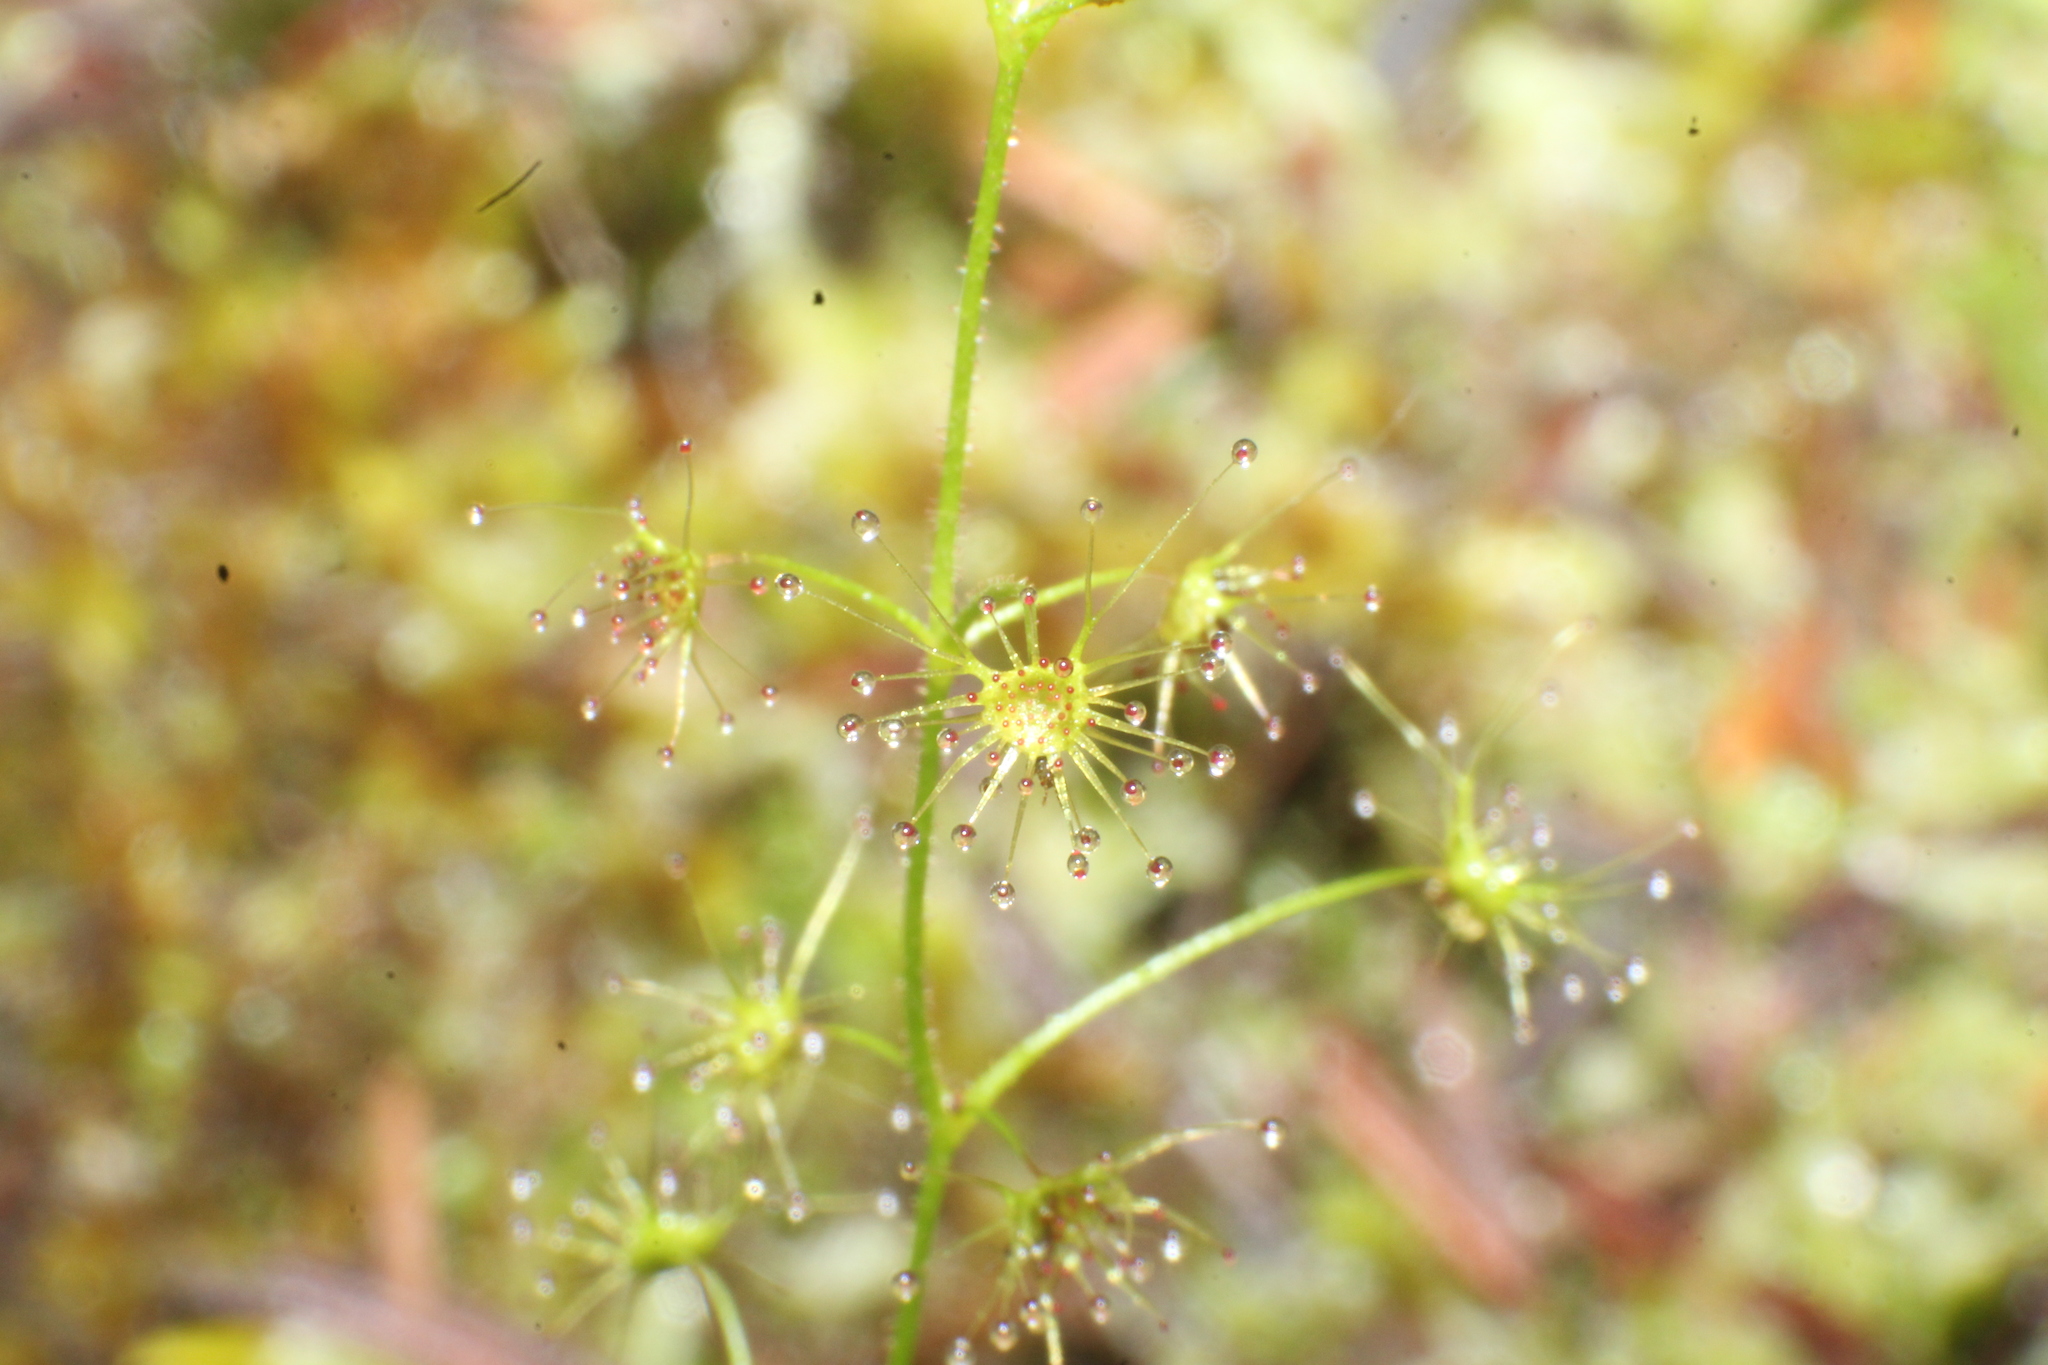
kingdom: Plantae
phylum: Tracheophyta
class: Magnoliopsida
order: Caryophyllales
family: Droseraceae
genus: Drosera
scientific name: Drosera modesta
